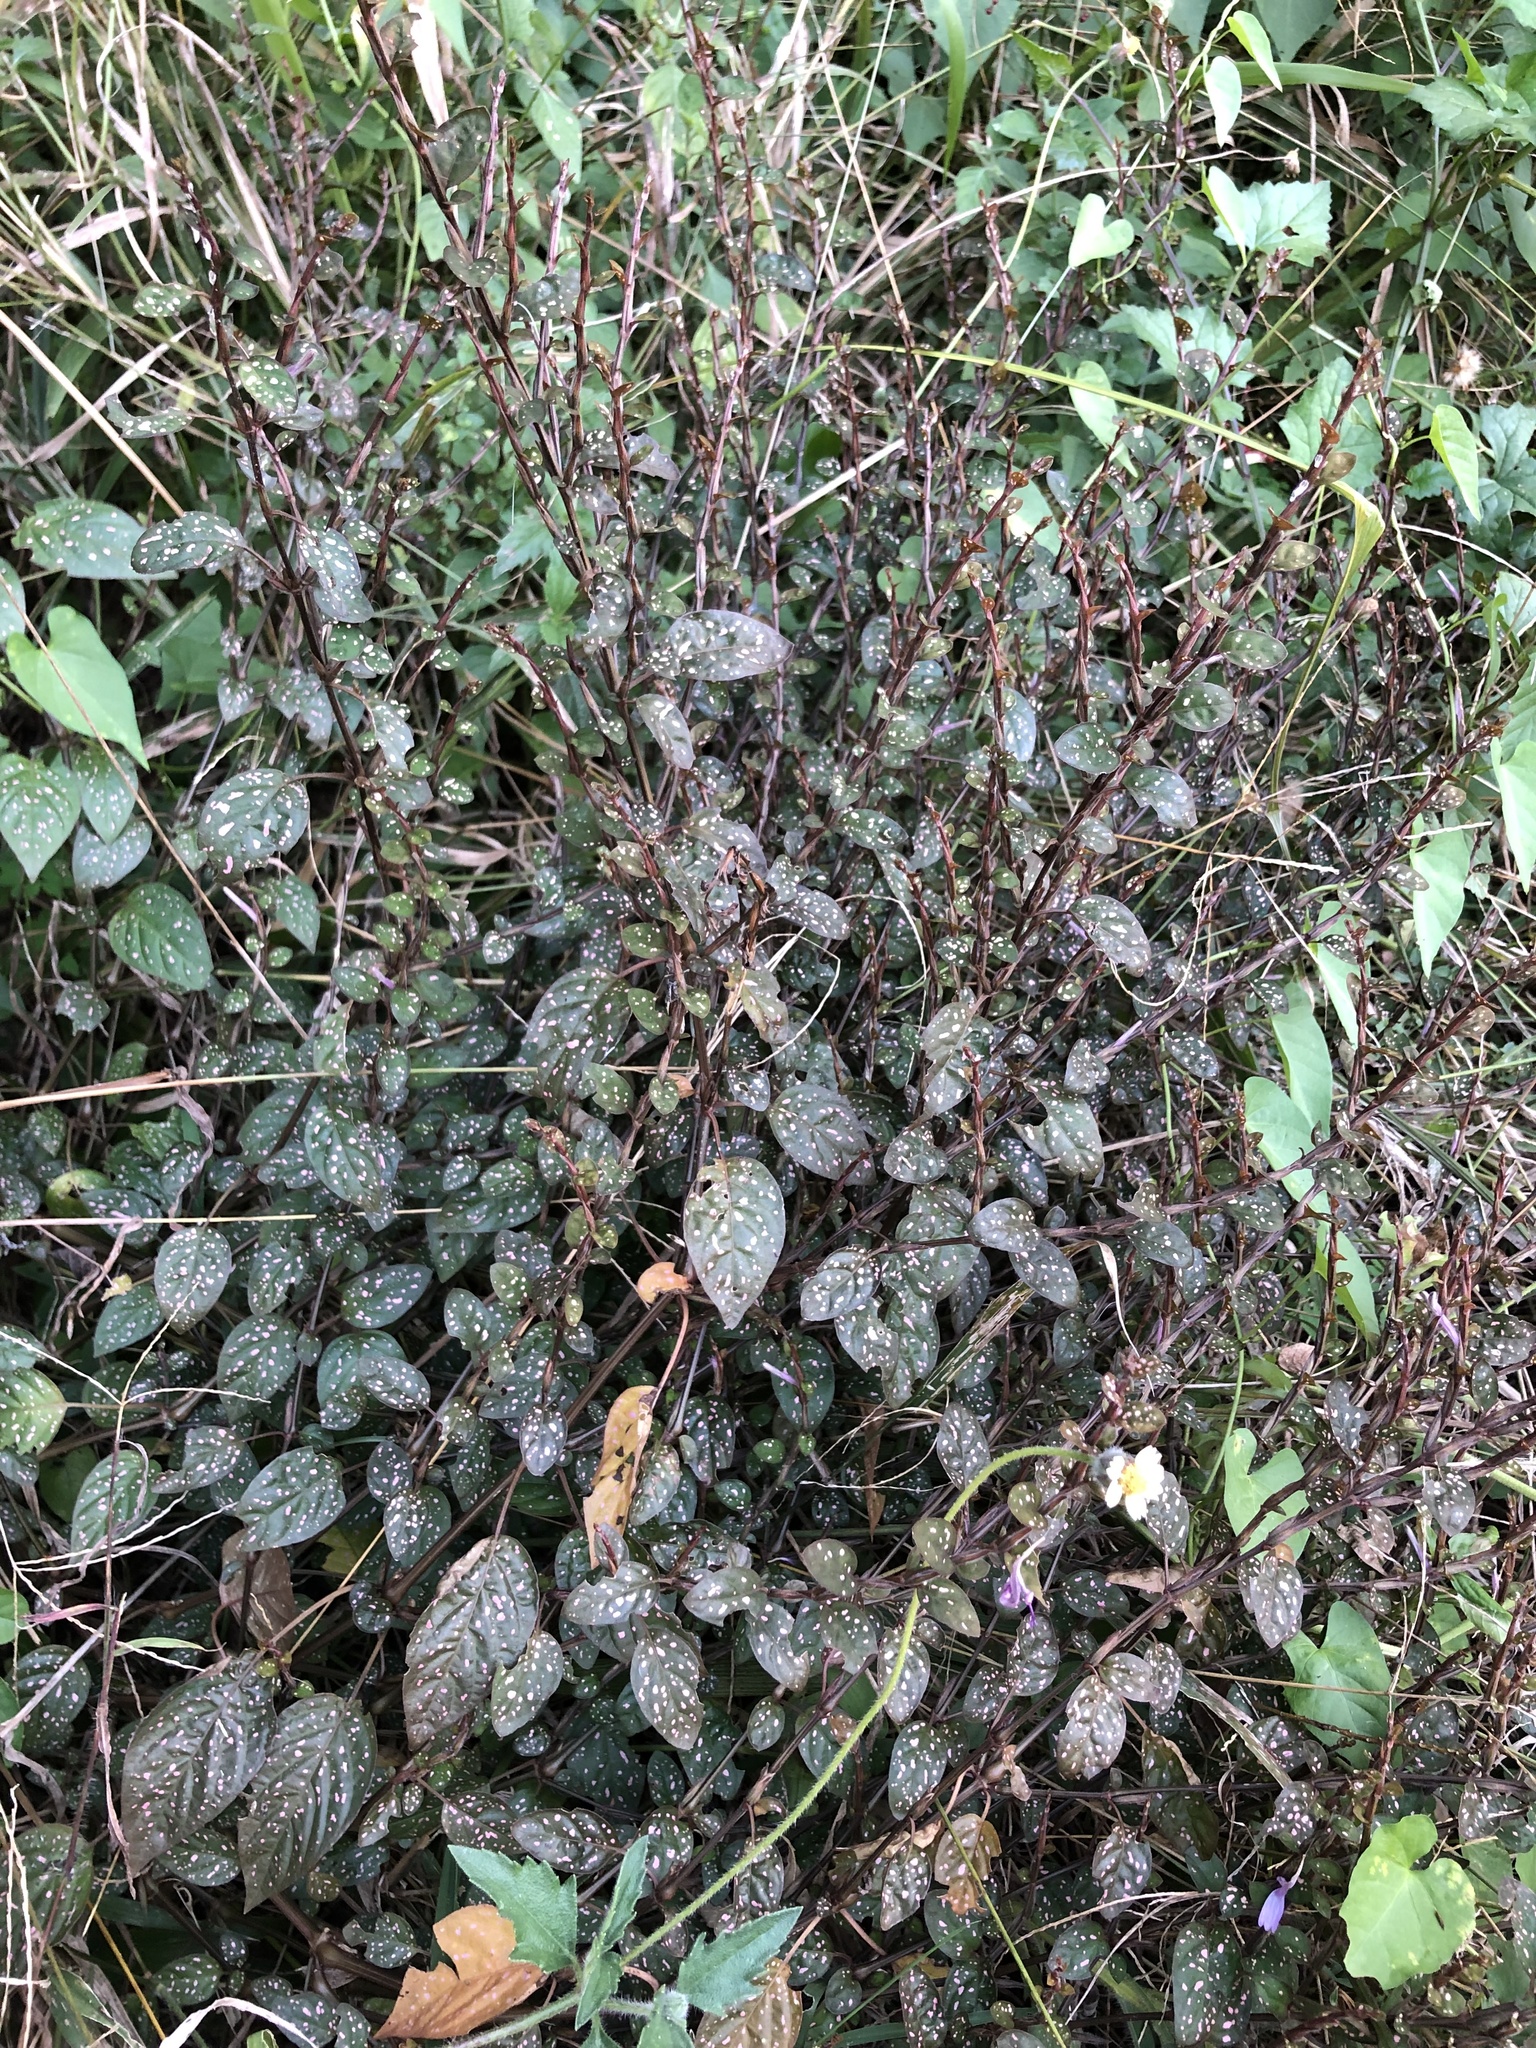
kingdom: Plantae
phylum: Tracheophyta
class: Magnoliopsida
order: Lamiales
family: Acanthaceae
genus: Hypoestes
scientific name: Hypoestes phyllostachya
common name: Polkadot-plant
